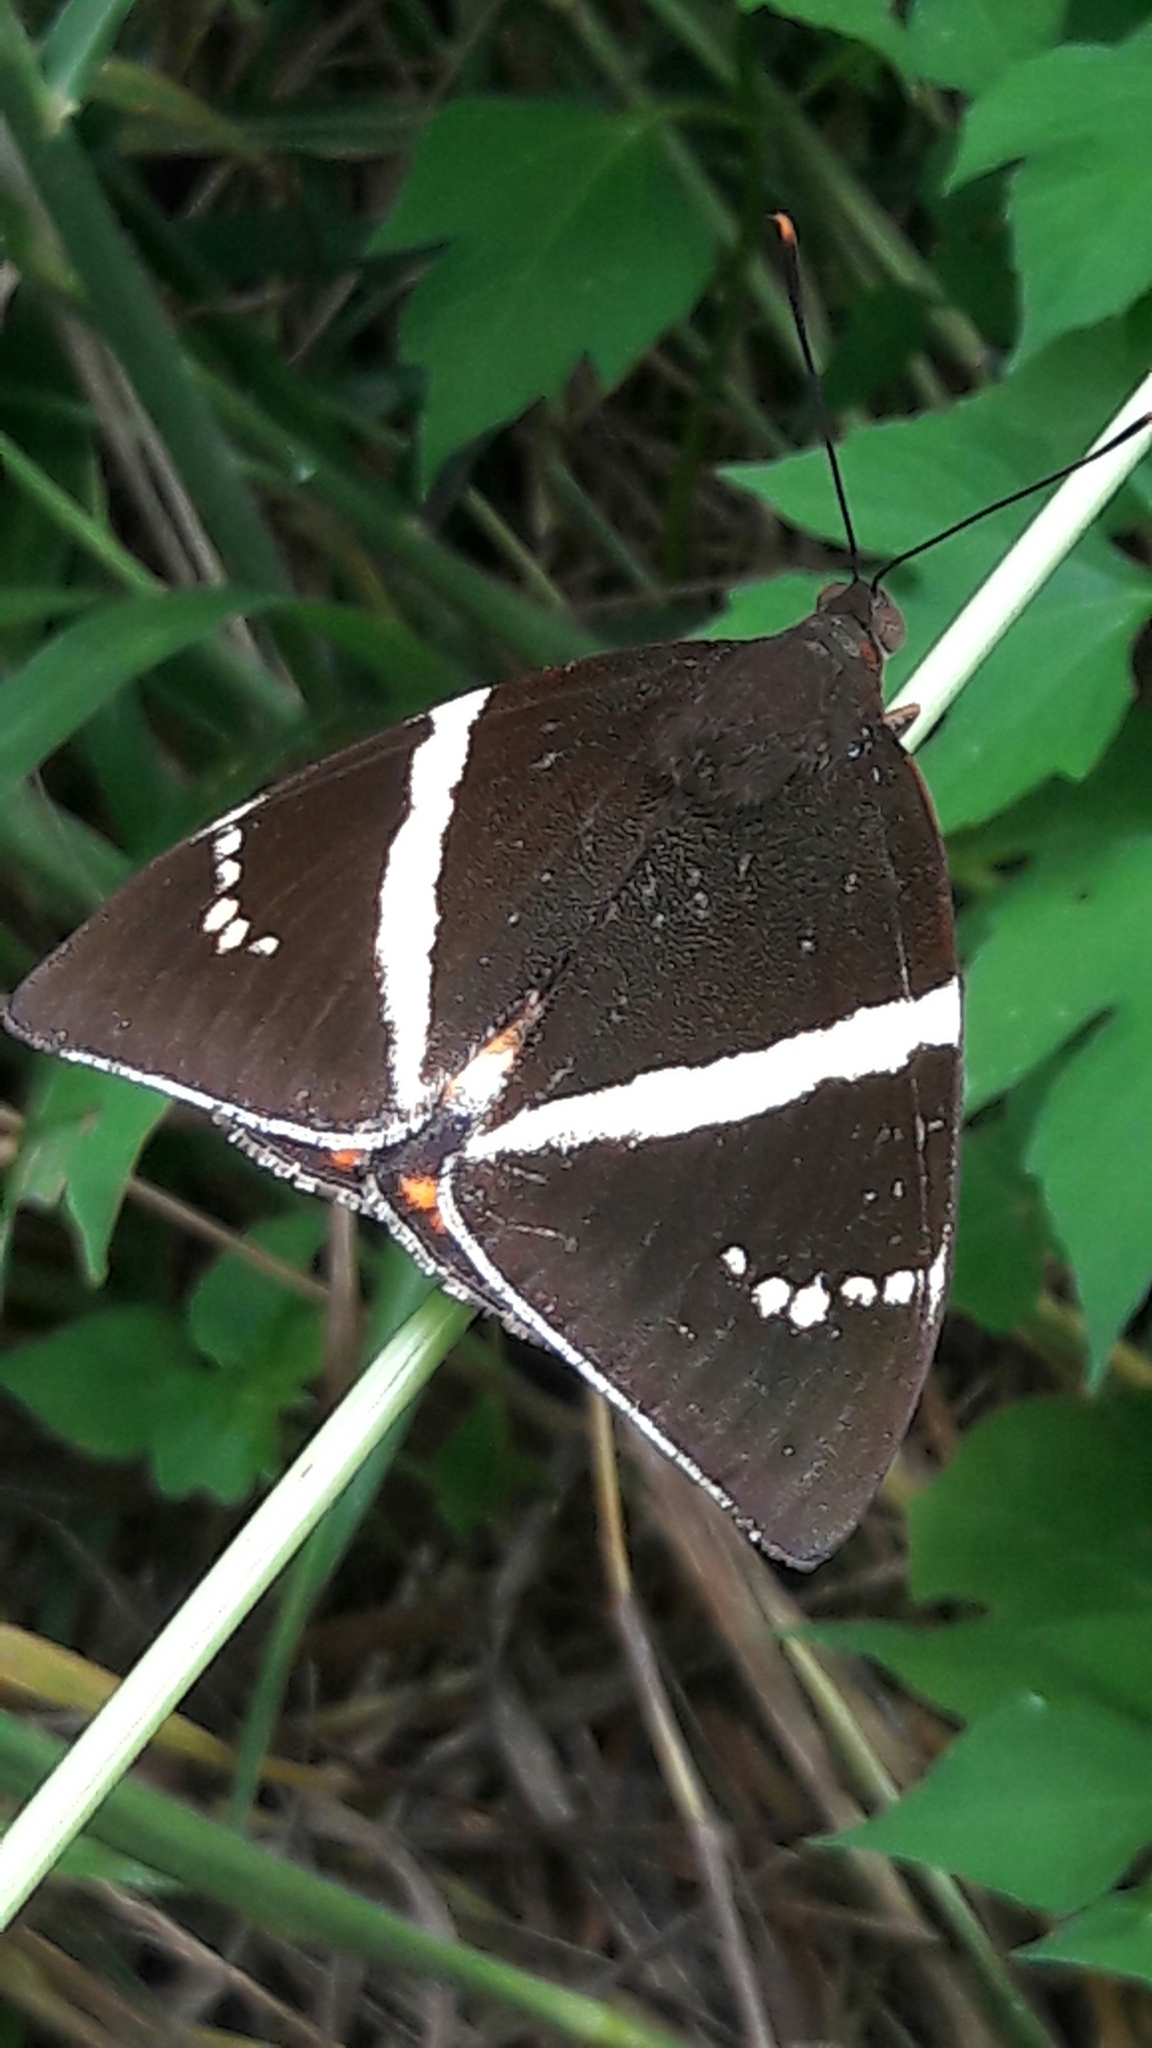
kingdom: Animalia
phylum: Arthropoda
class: Insecta
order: Lepidoptera
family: Castniidae
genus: Castnia
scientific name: Castnia licus
